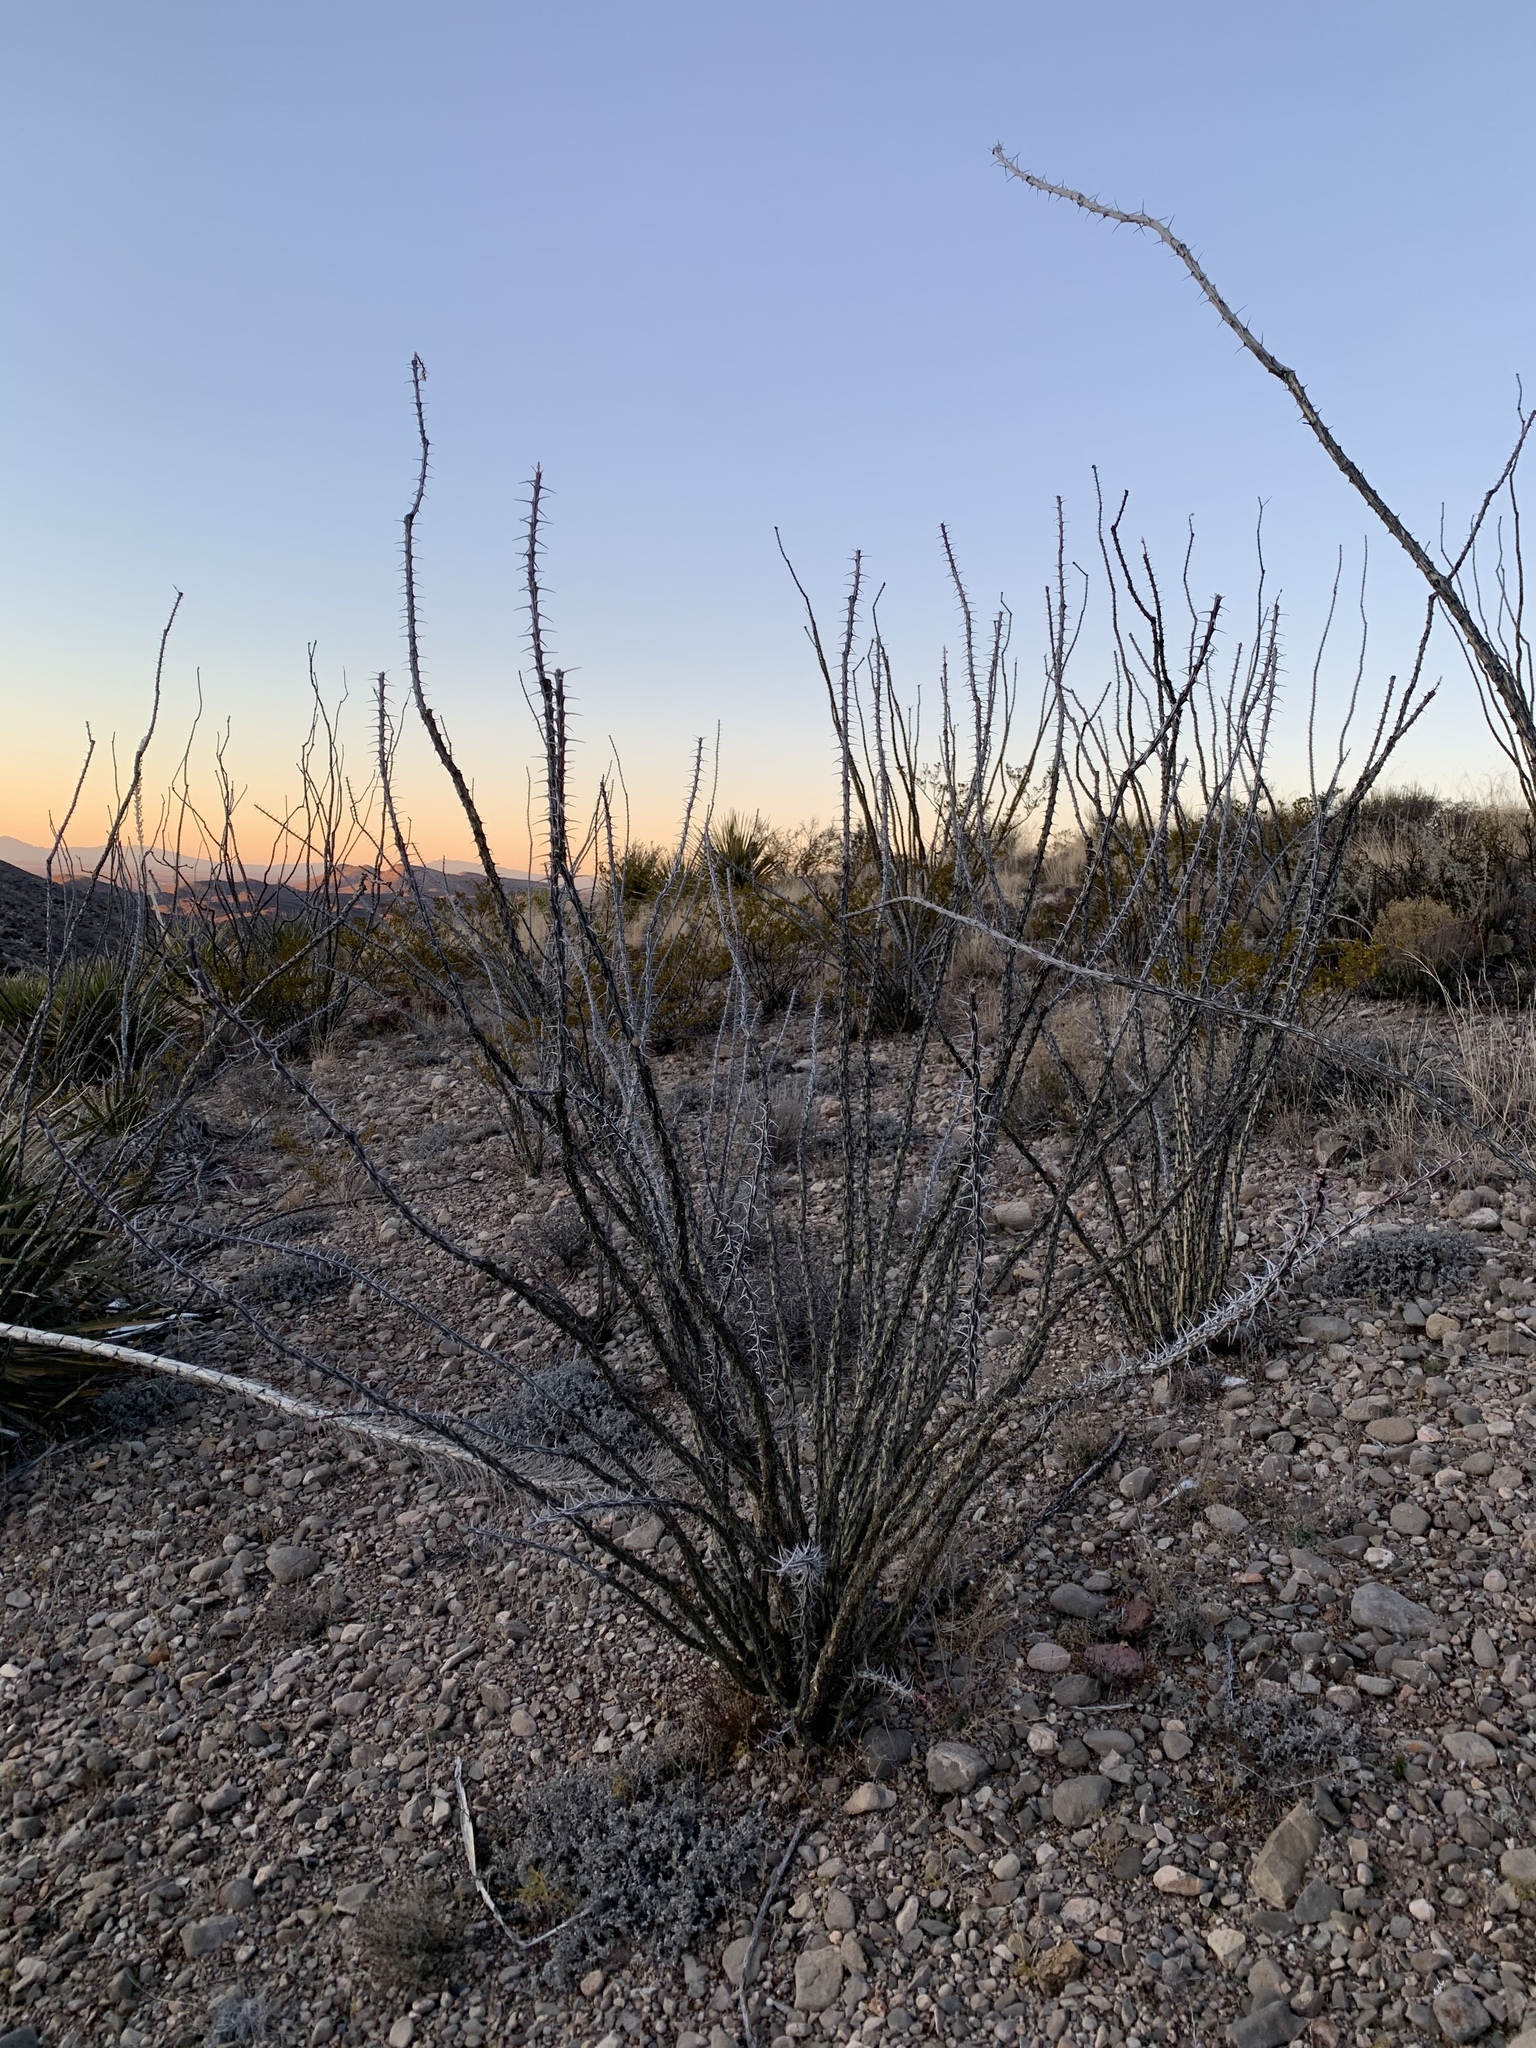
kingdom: Plantae
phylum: Tracheophyta
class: Magnoliopsida
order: Ericales
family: Fouquieriaceae
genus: Fouquieria
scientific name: Fouquieria splendens
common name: Vine-cactus
